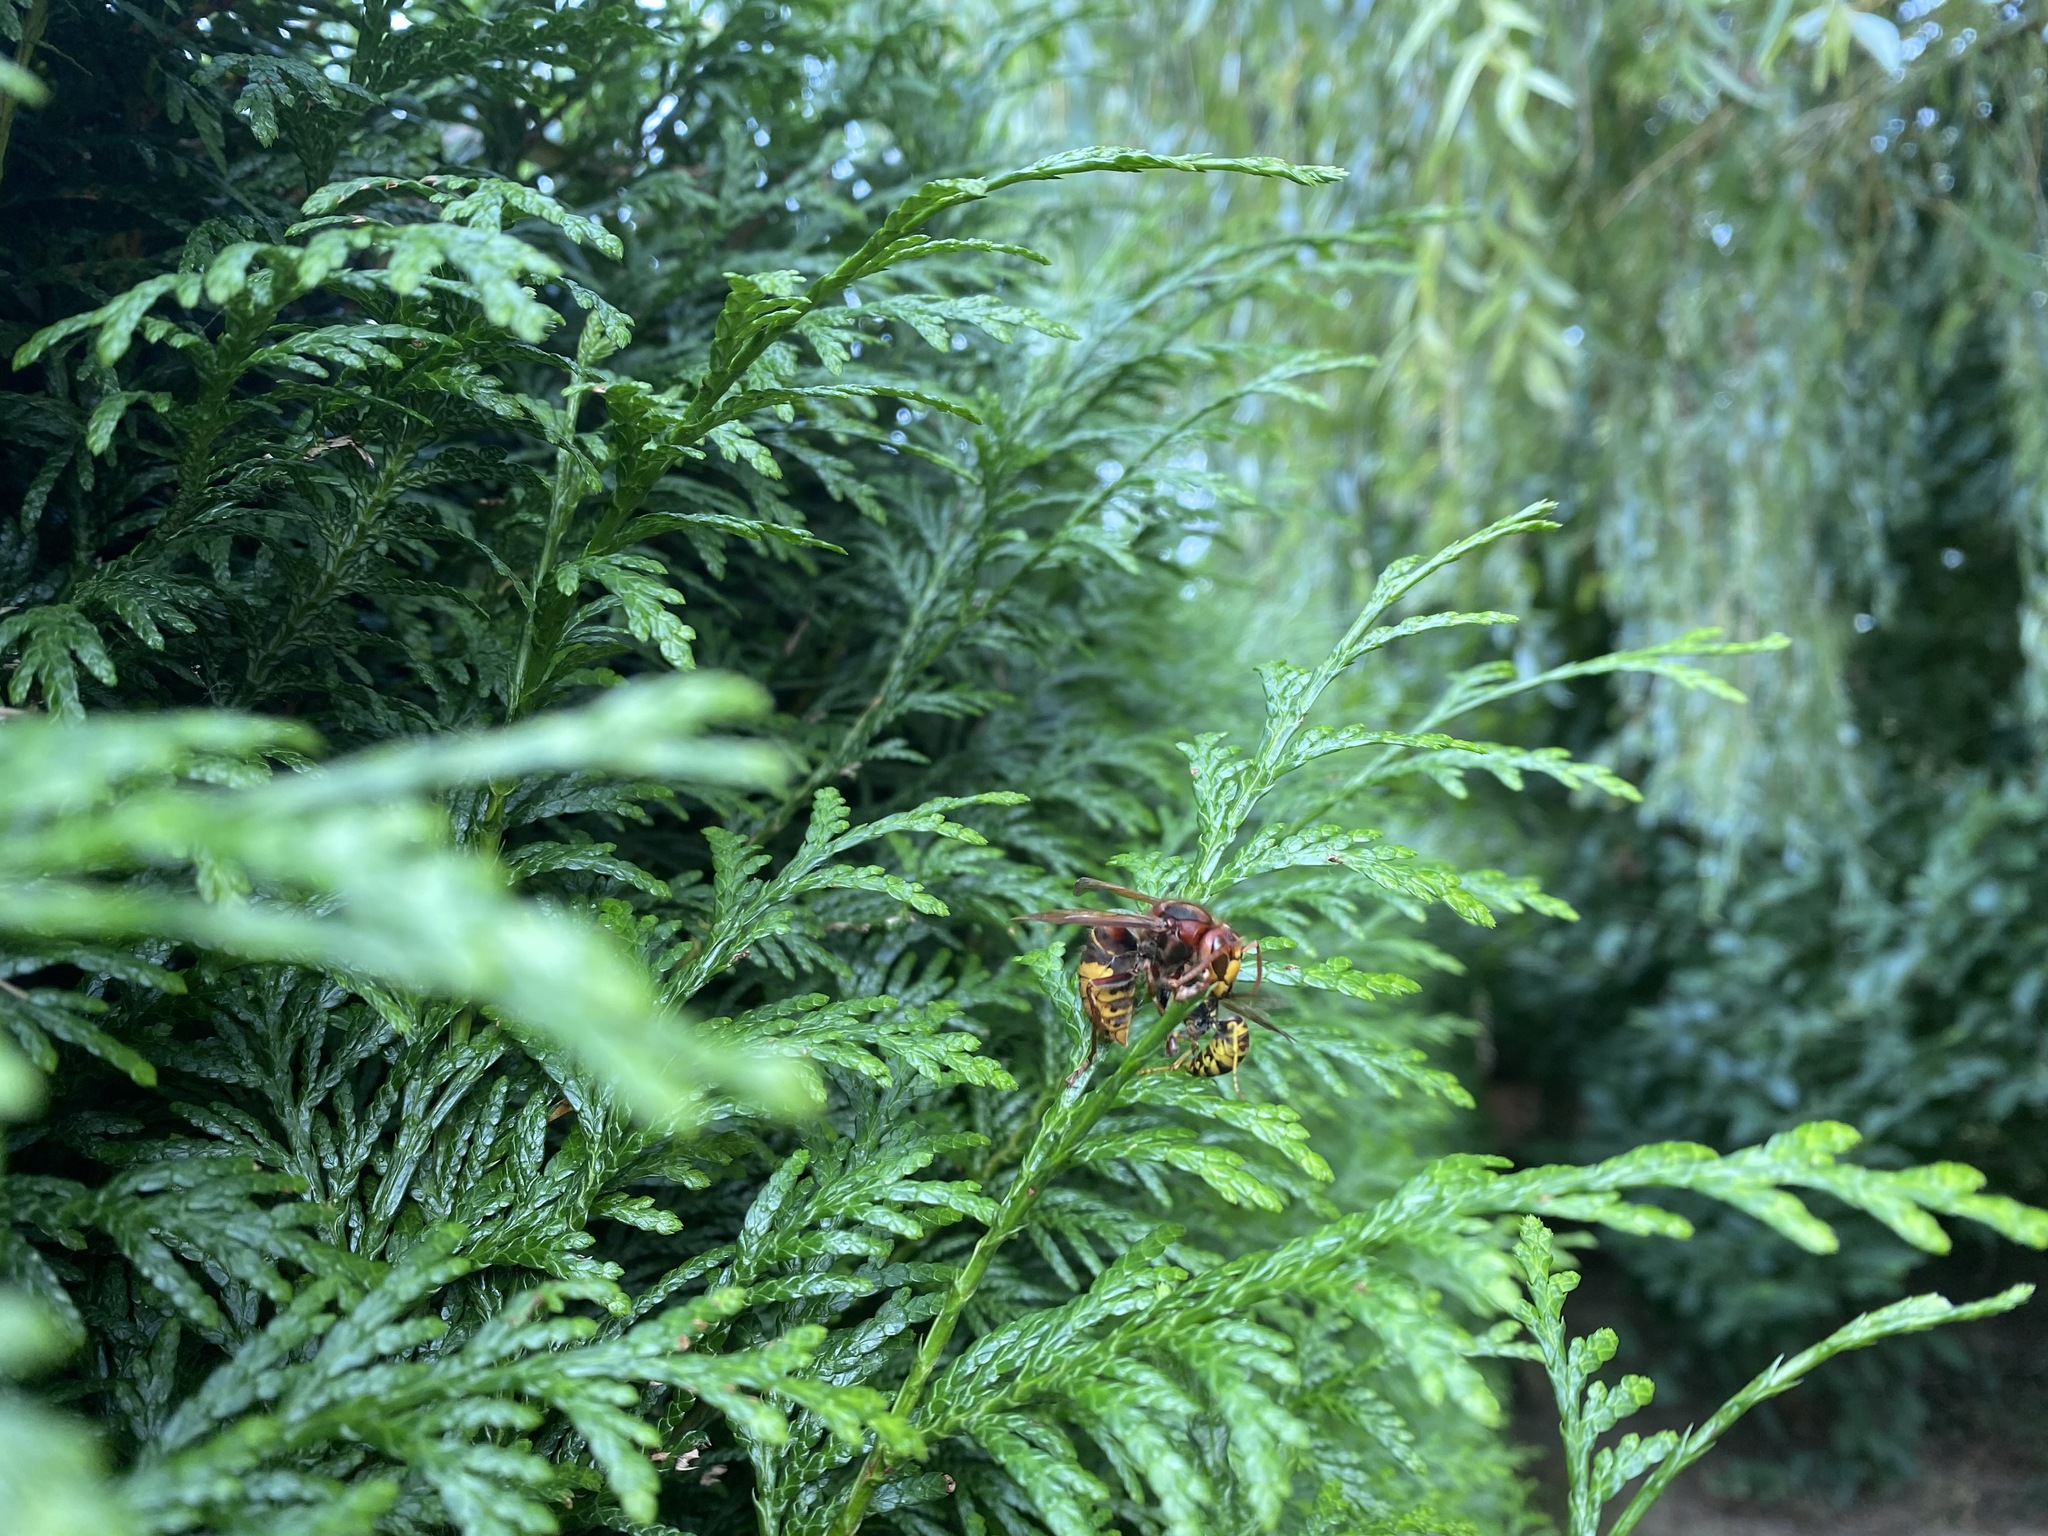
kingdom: Animalia
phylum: Arthropoda
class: Insecta
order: Hymenoptera
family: Vespidae
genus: Vespa
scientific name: Vespa crabro
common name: Hornet
